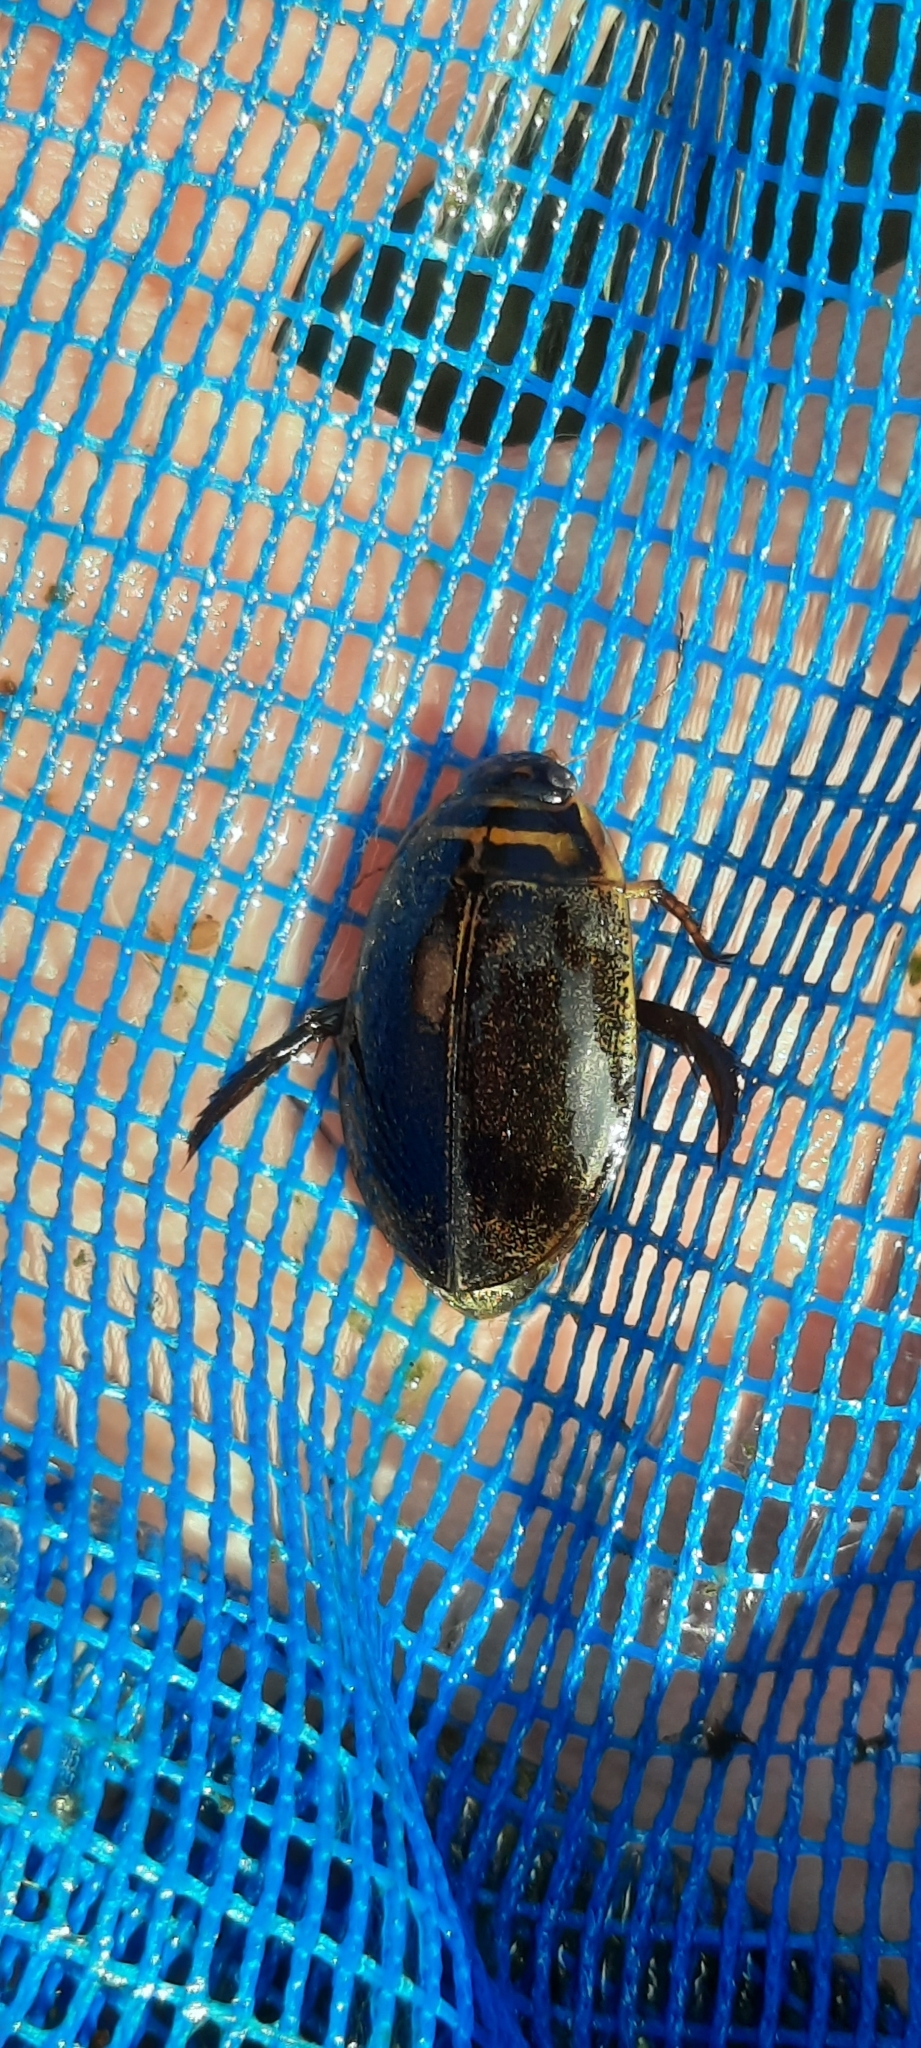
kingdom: Animalia
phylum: Arthropoda
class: Insecta
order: Coleoptera
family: Dytiscidae
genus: Acilius
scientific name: Acilius sulcatus
